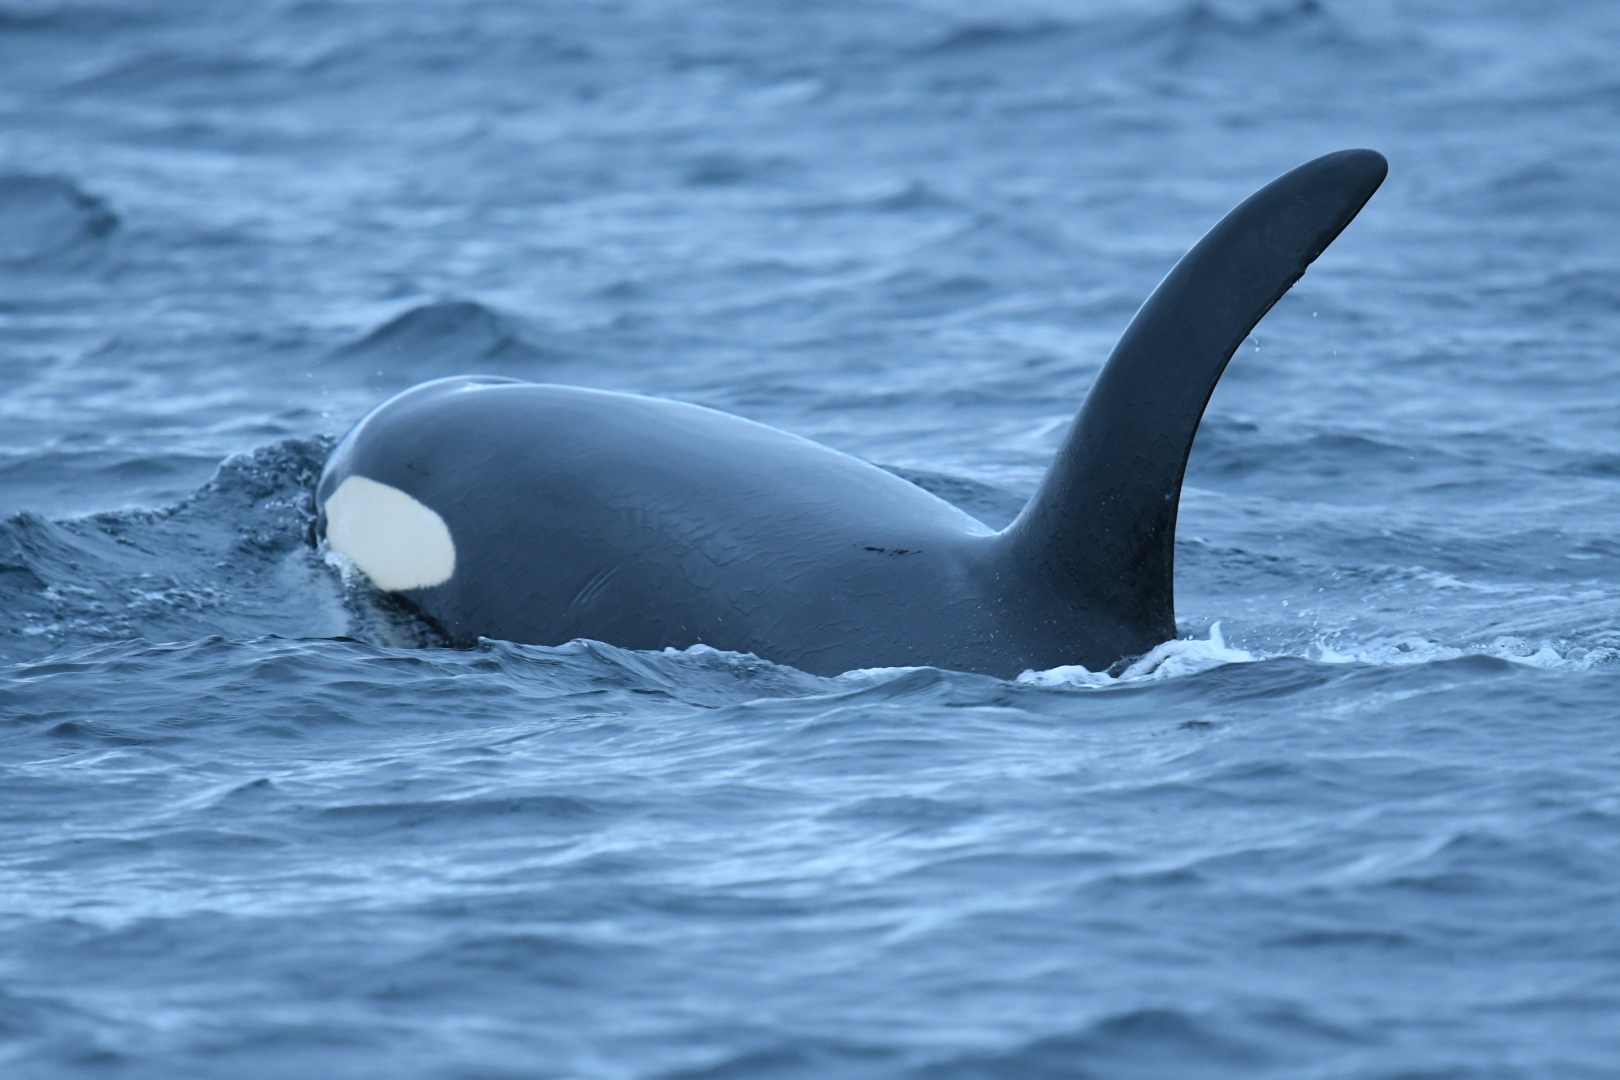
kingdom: Animalia
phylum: Chordata
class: Mammalia
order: Cetacea
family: Delphinidae
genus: Orcinus
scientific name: Orcinus orca
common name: Killer whale
